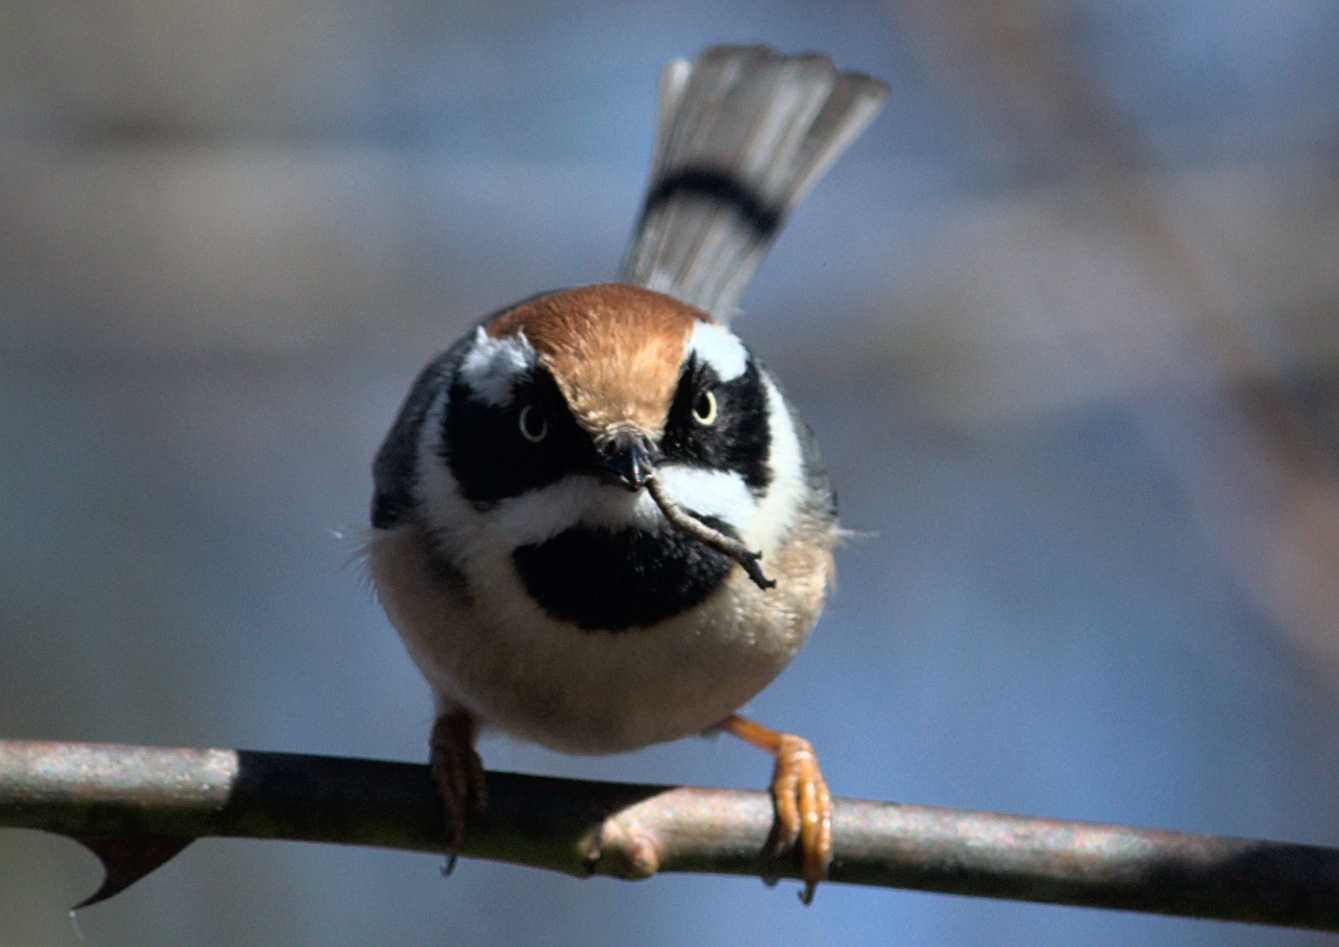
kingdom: Animalia
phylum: Chordata
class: Aves
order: Passeriformes
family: Aegithalidae
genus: Aegithalos
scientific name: Aegithalos concinnus
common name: Black-throated bushtit
